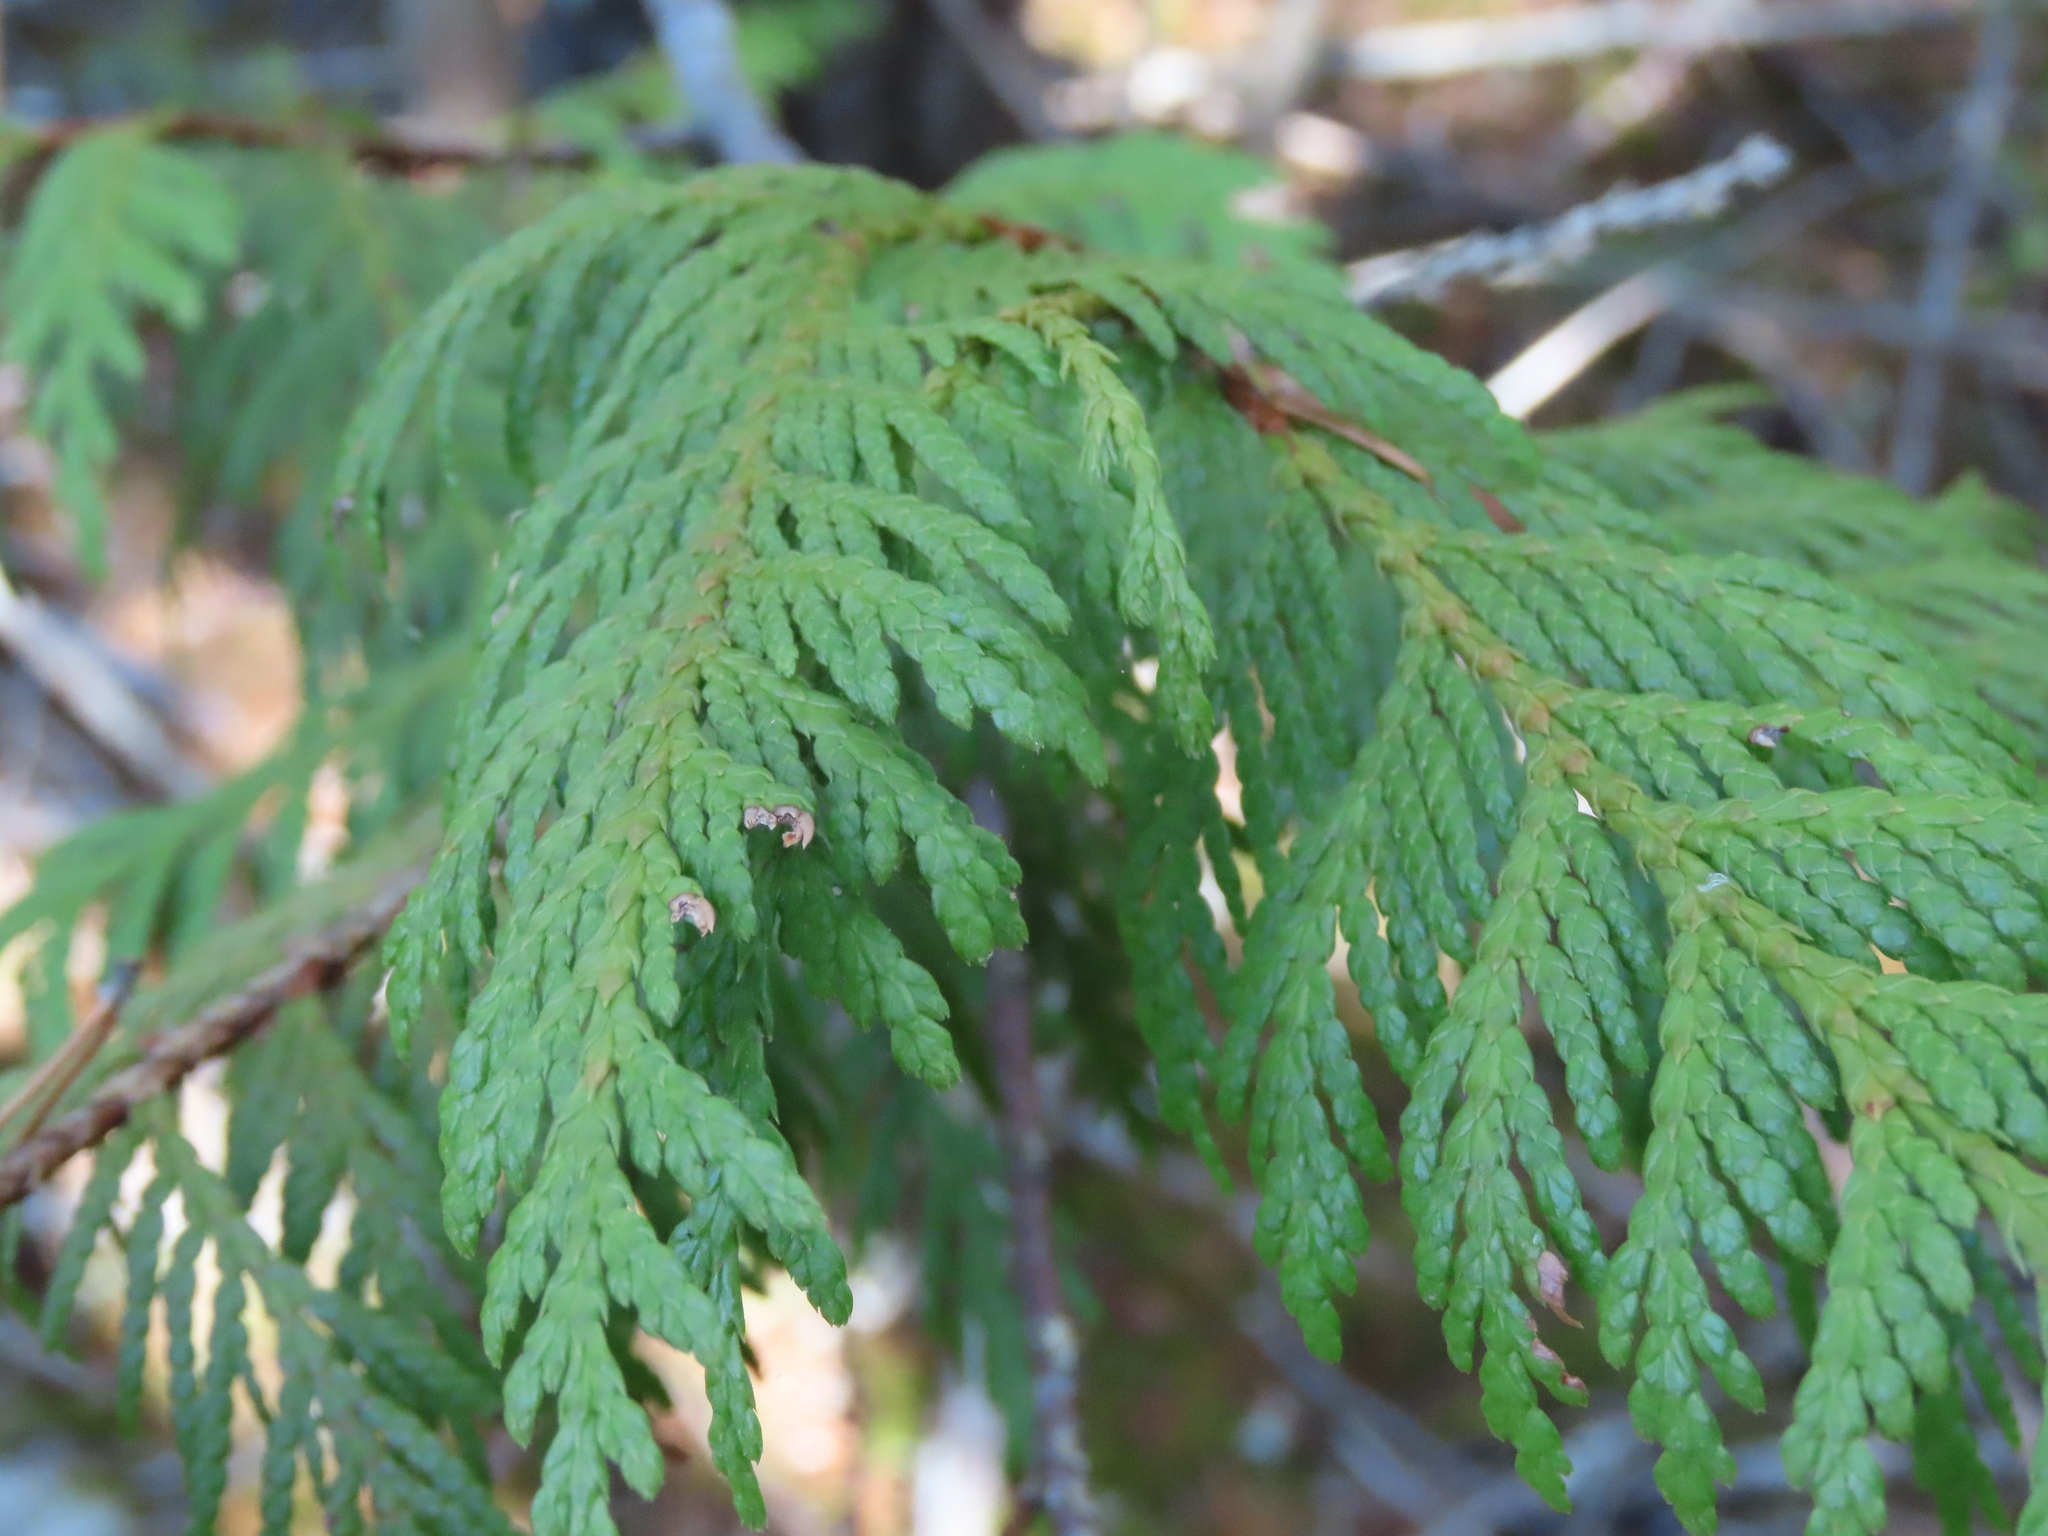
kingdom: Plantae
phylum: Tracheophyta
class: Pinopsida
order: Pinales
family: Cupressaceae
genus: Thuja
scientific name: Thuja plicata
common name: Western red-cedar
